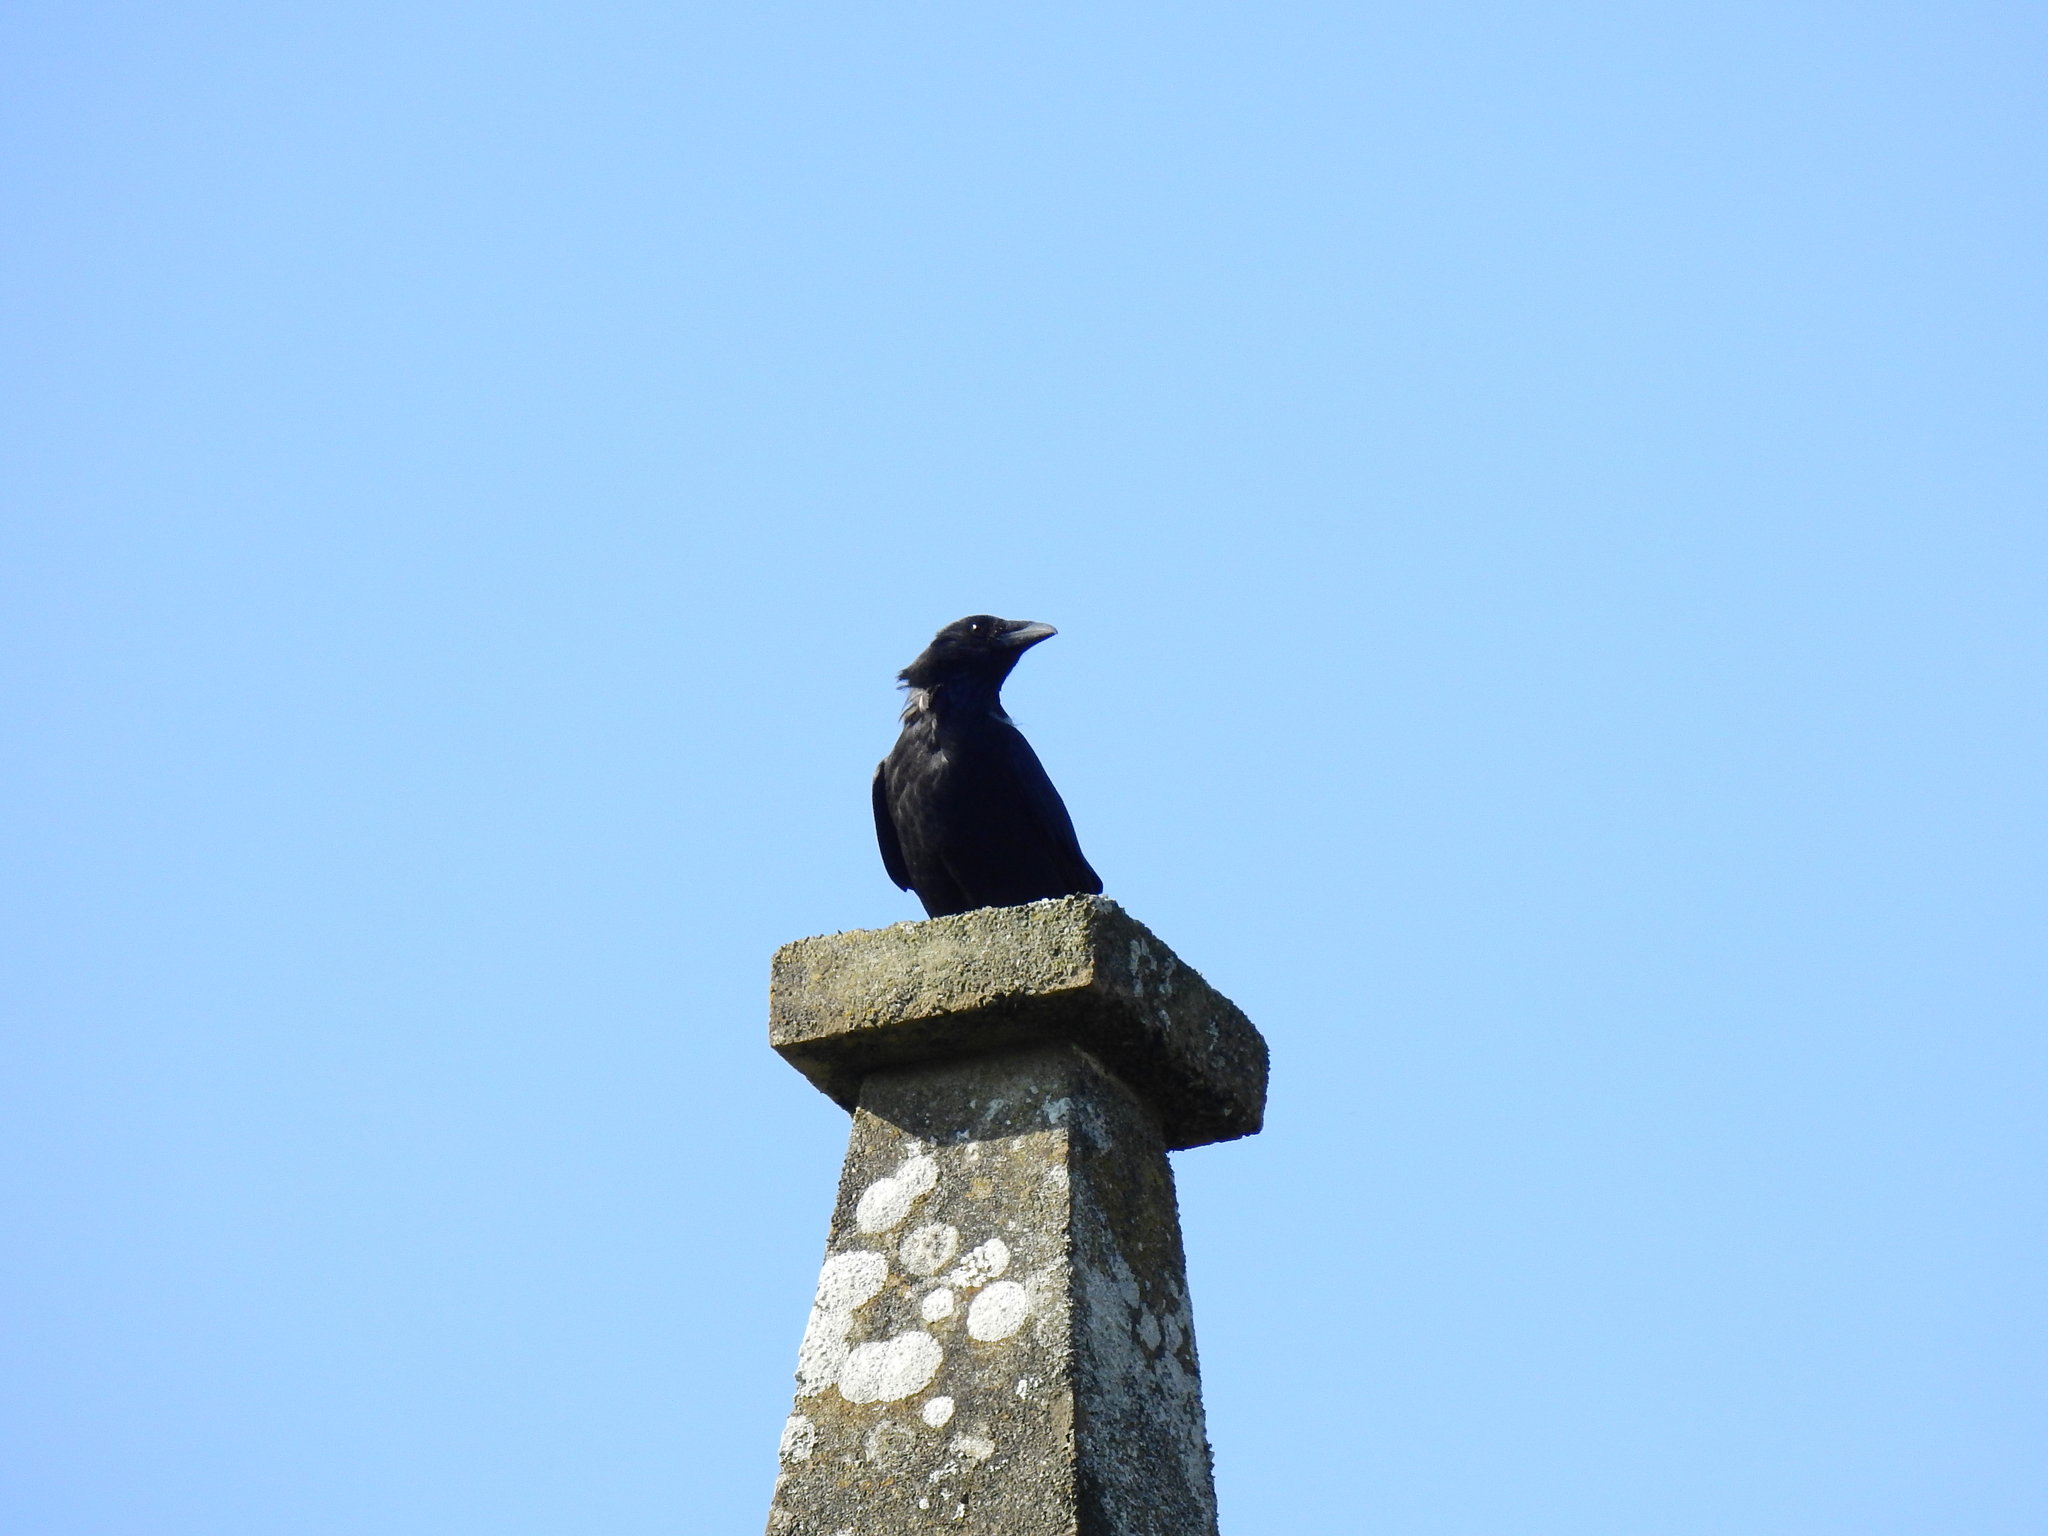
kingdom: Animalia
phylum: Chordata
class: Aves
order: Passeriformes
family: Corvidae
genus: Corvus
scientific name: Corvus corone
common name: Carrion crow
